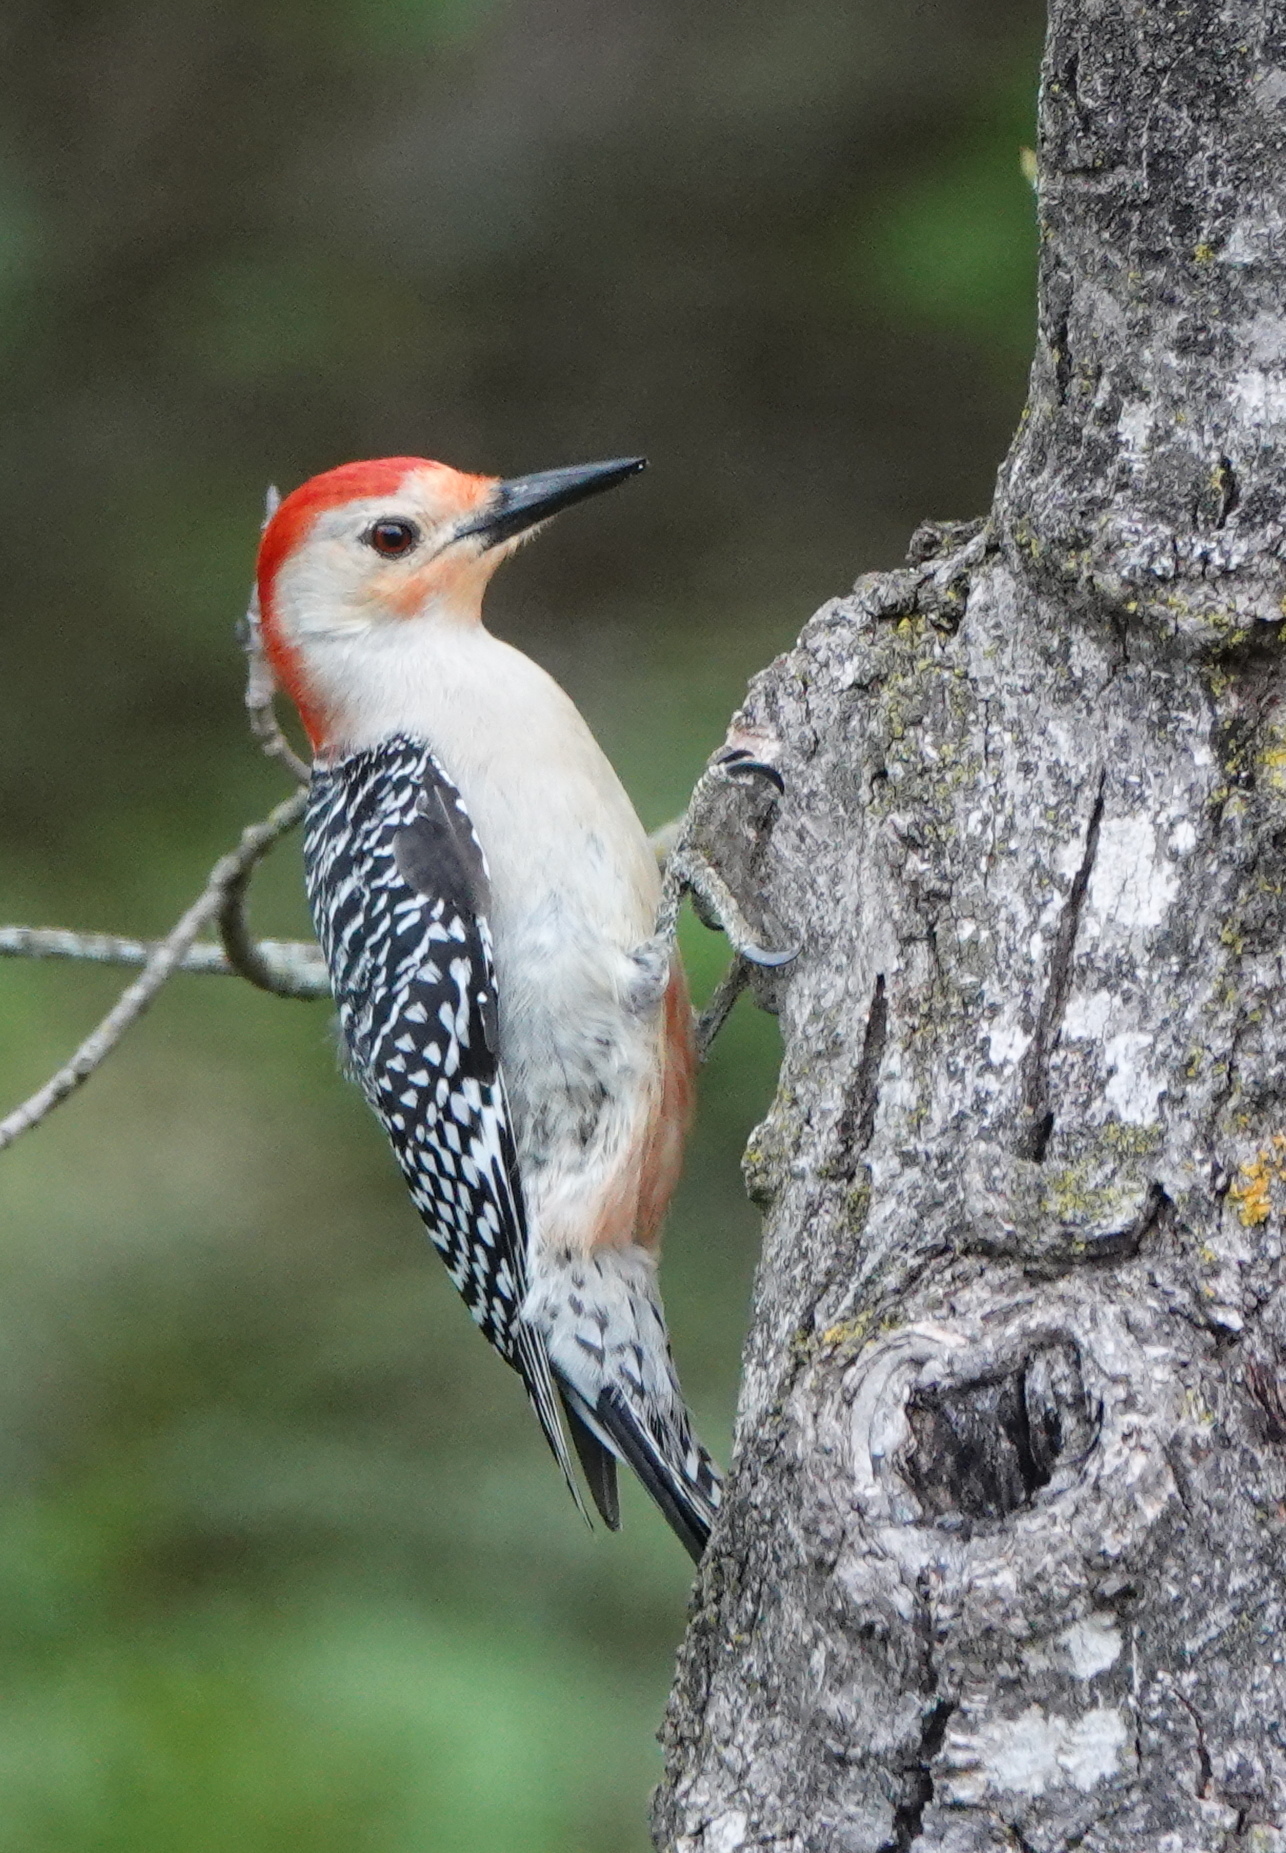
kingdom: Animalia
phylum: Chordata
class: Aves
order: Piciformes
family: Picidae
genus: Melanerpes
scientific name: Melanerpes carolinus
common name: Red-bellied woodpecker
